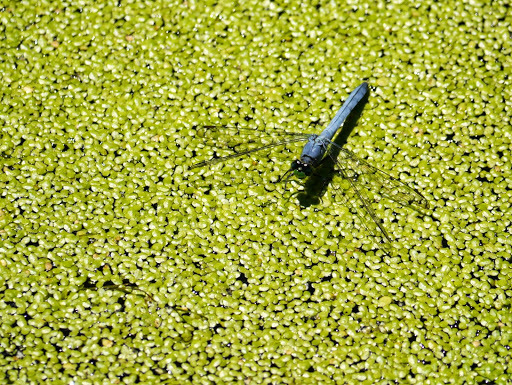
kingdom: Animalia
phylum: Arthropoda
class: Insecta
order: Odonata
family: Libellulidae
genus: Erythemis
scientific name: Erythemis simplicicollis
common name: Eastern pondhawk
